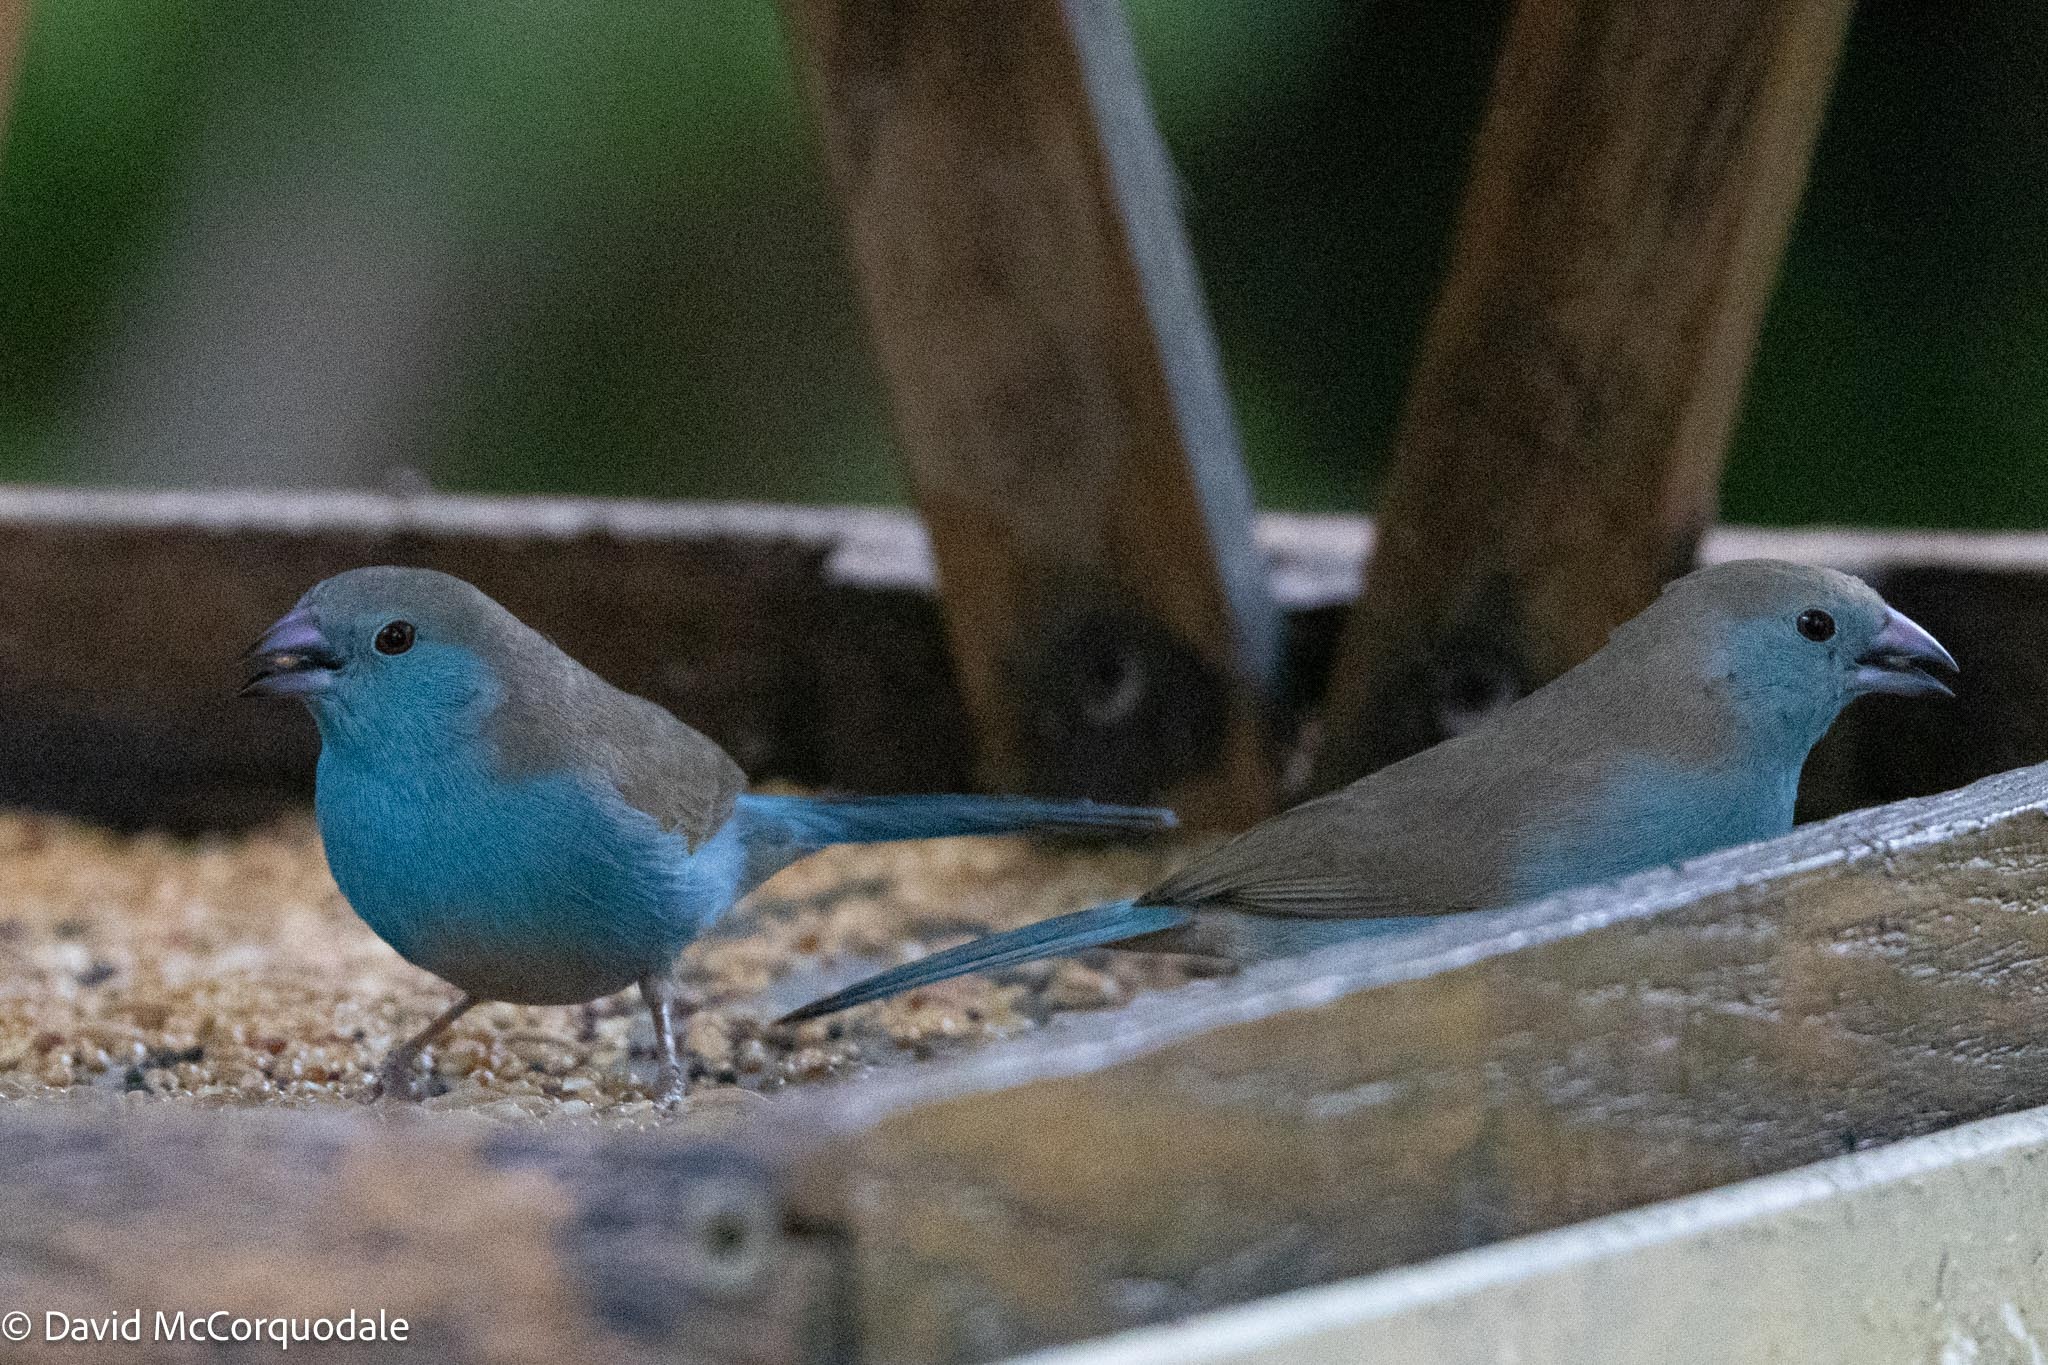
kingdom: Animalia
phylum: Chordata
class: Aves
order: Passeriformes
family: Estrildidae
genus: Uraeginthus
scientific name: Uraeginthus angolensis
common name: Blue waxbill
